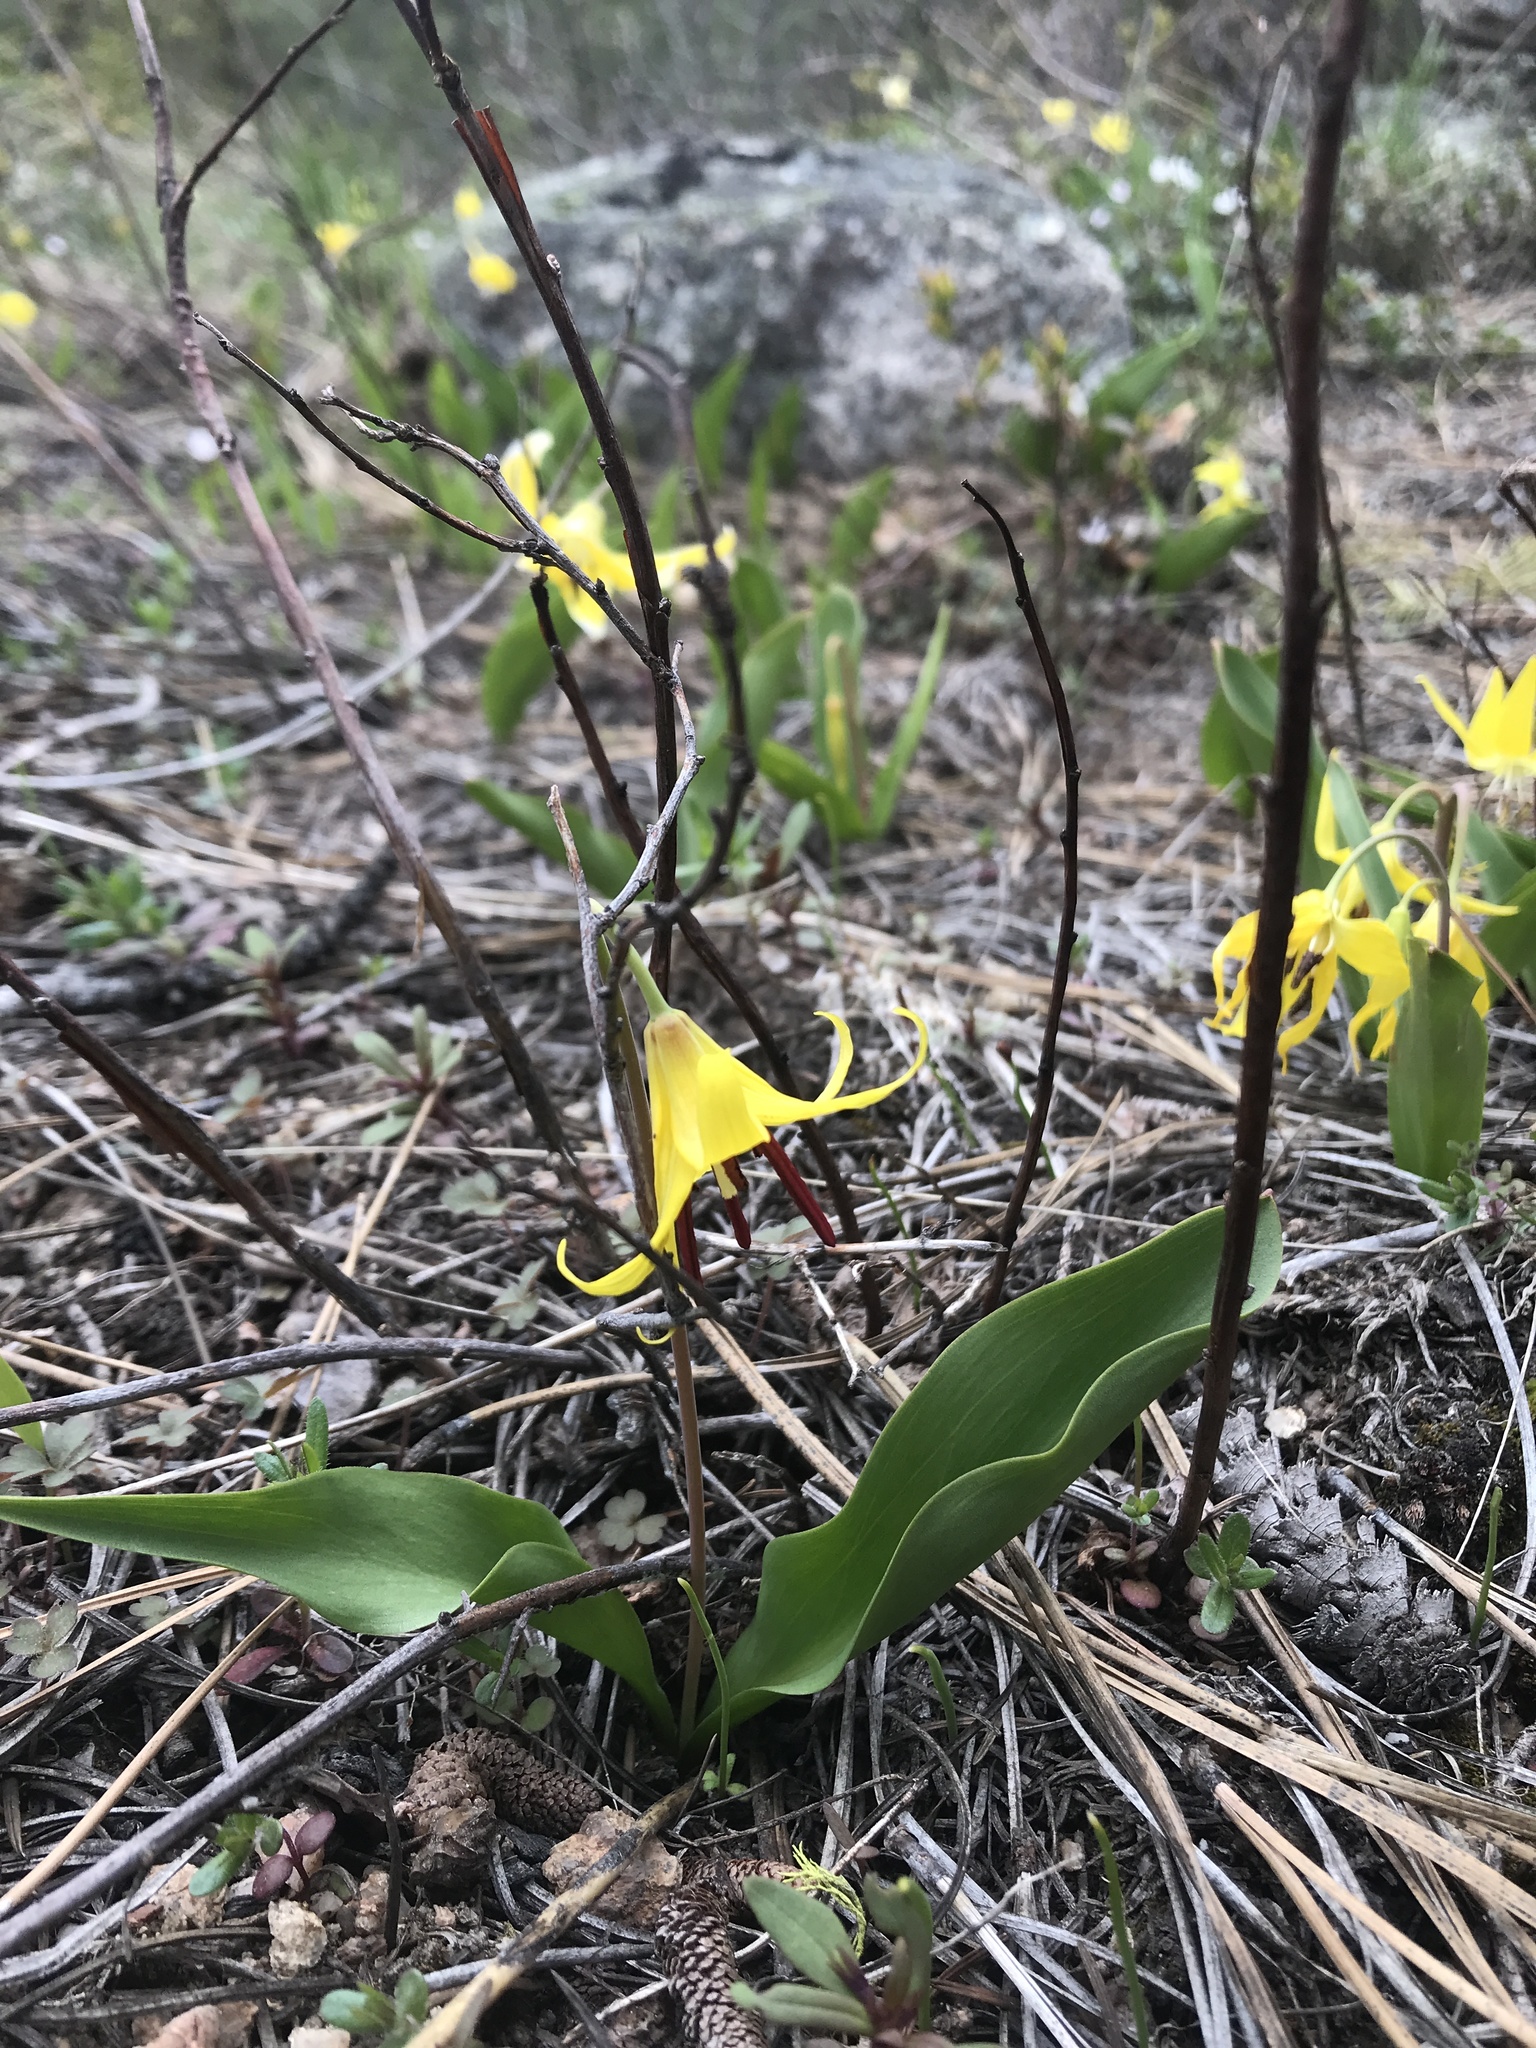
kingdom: Plantae
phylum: Tracheophyta
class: Liliopsida
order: Liliales
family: Liliaceae
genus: Erythronium
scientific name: Erythronium grandiflorum
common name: Avalanche-lily
